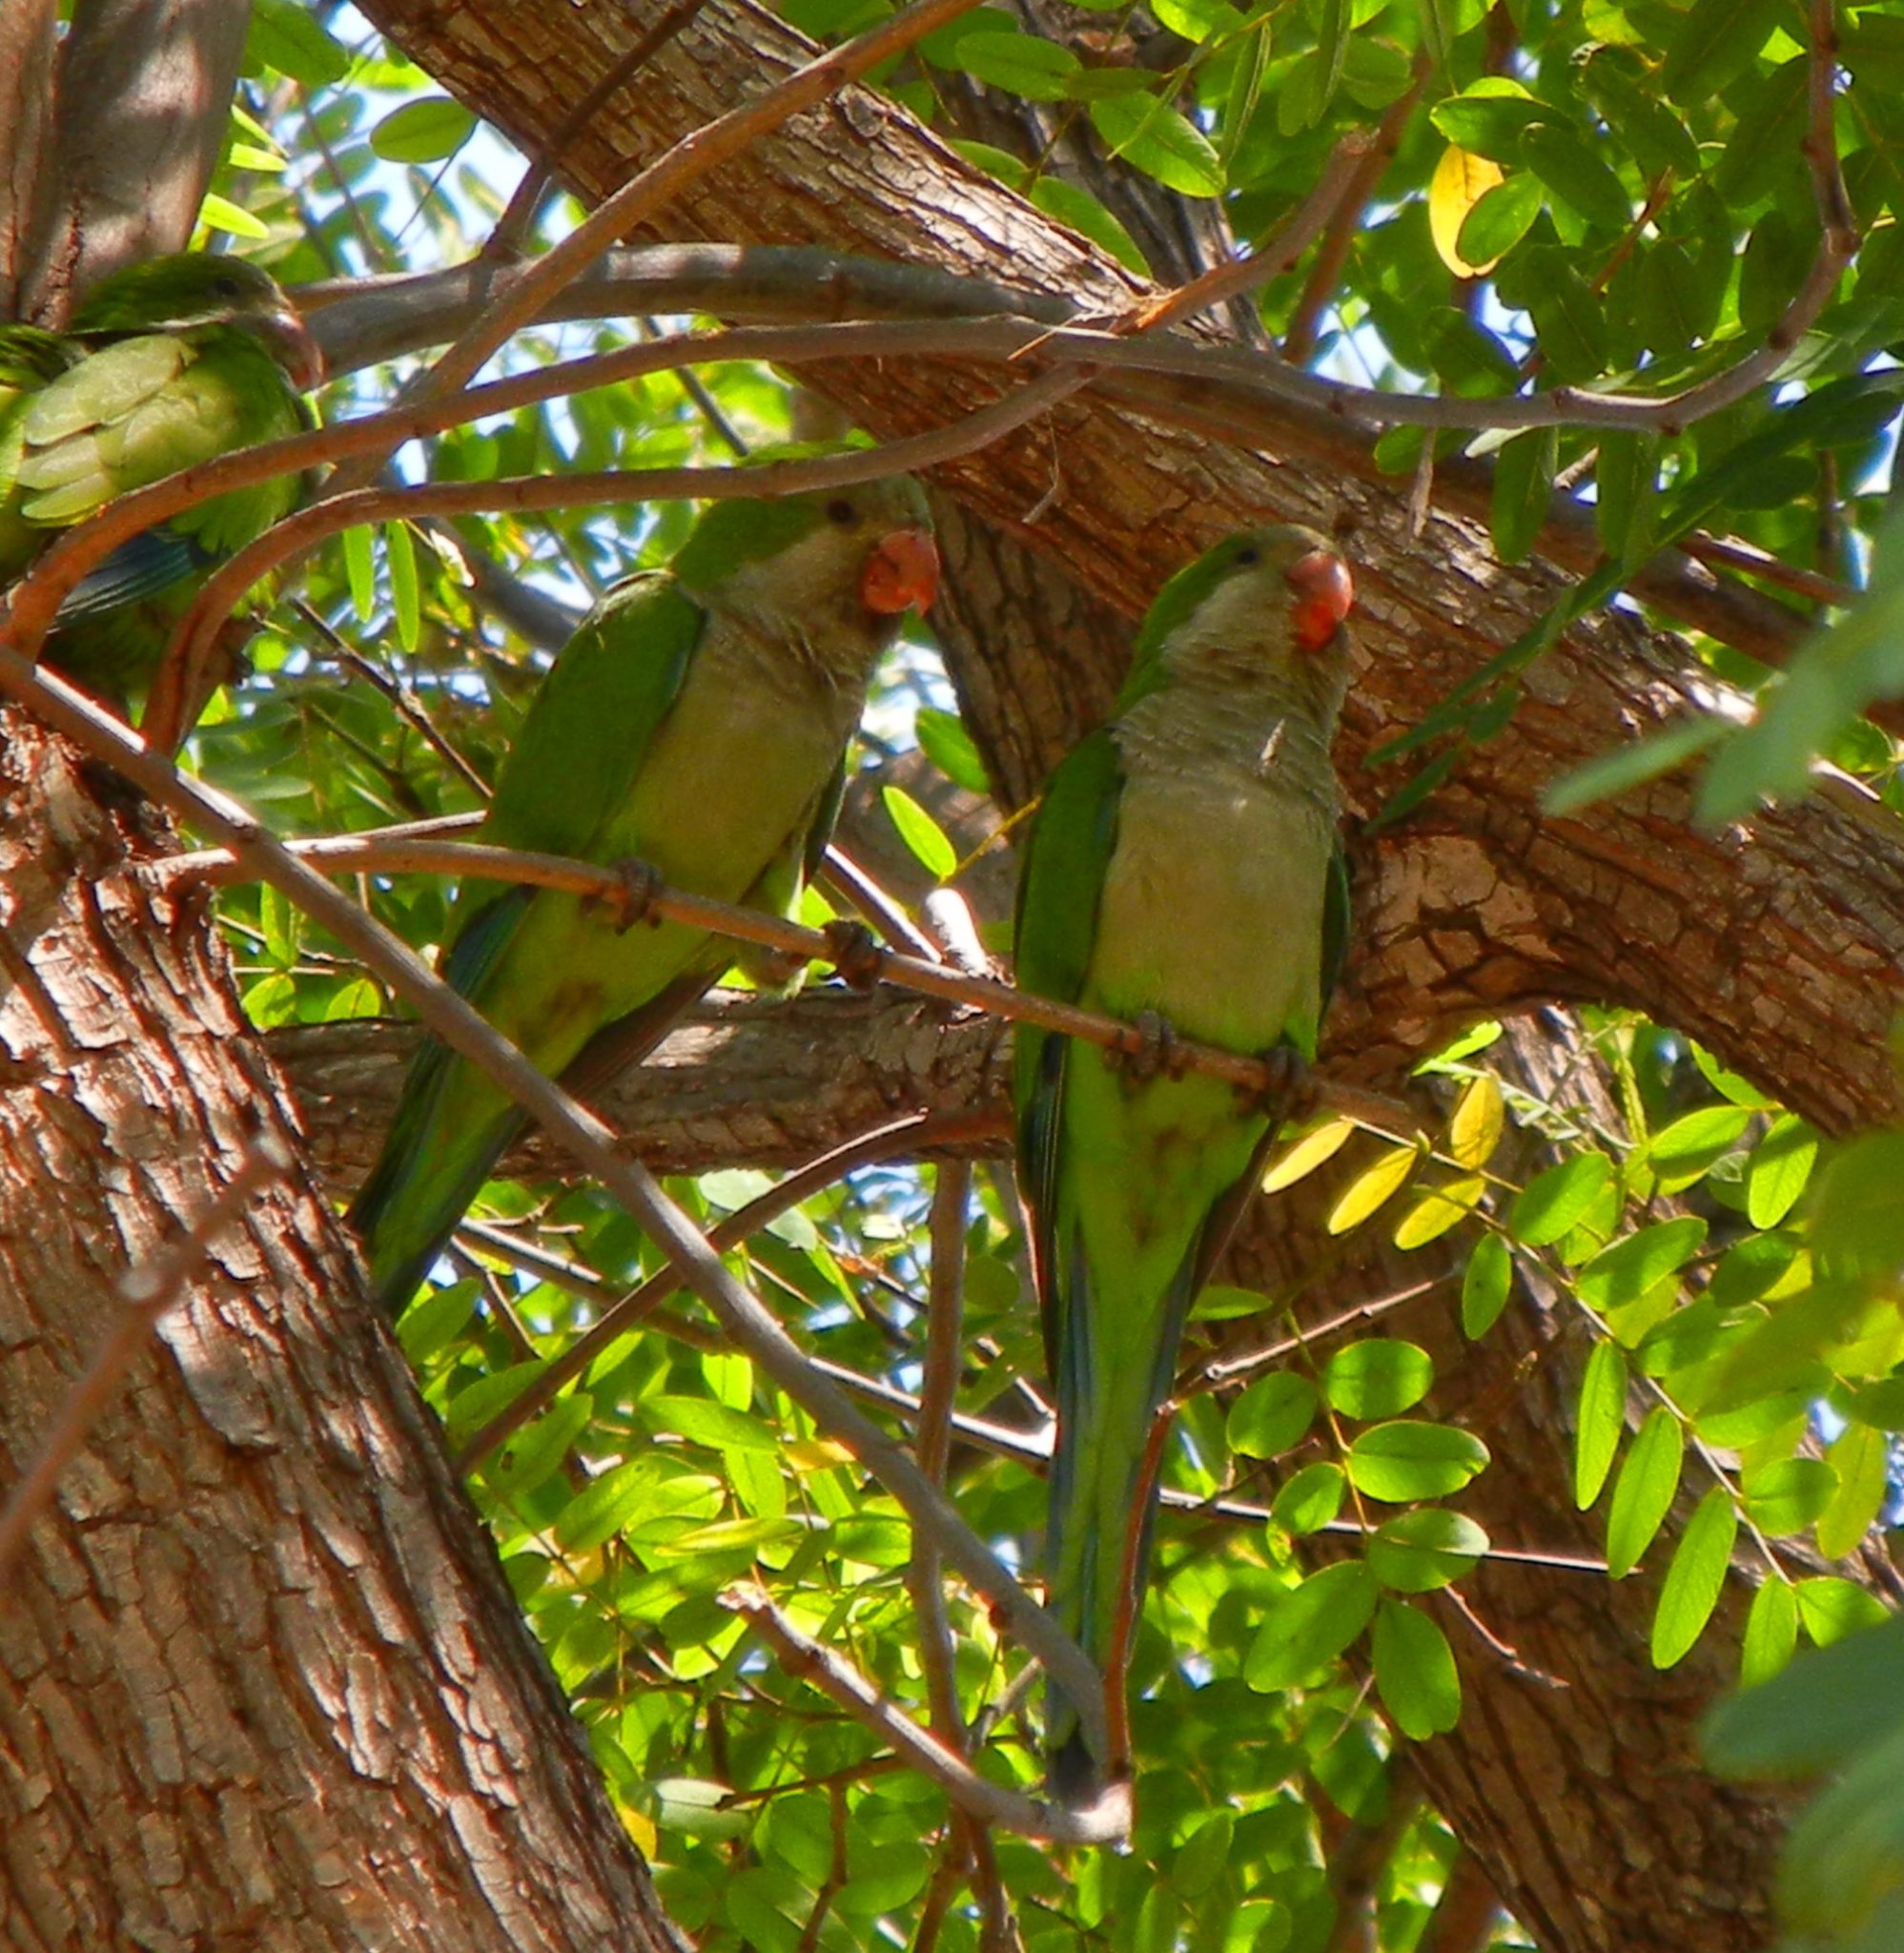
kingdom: Animalia
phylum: Chordata
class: Aves
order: Psittaciformes
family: Psittacidae
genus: Myiopsitta
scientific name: Myiopsitta monachus
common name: Monk parakeet
